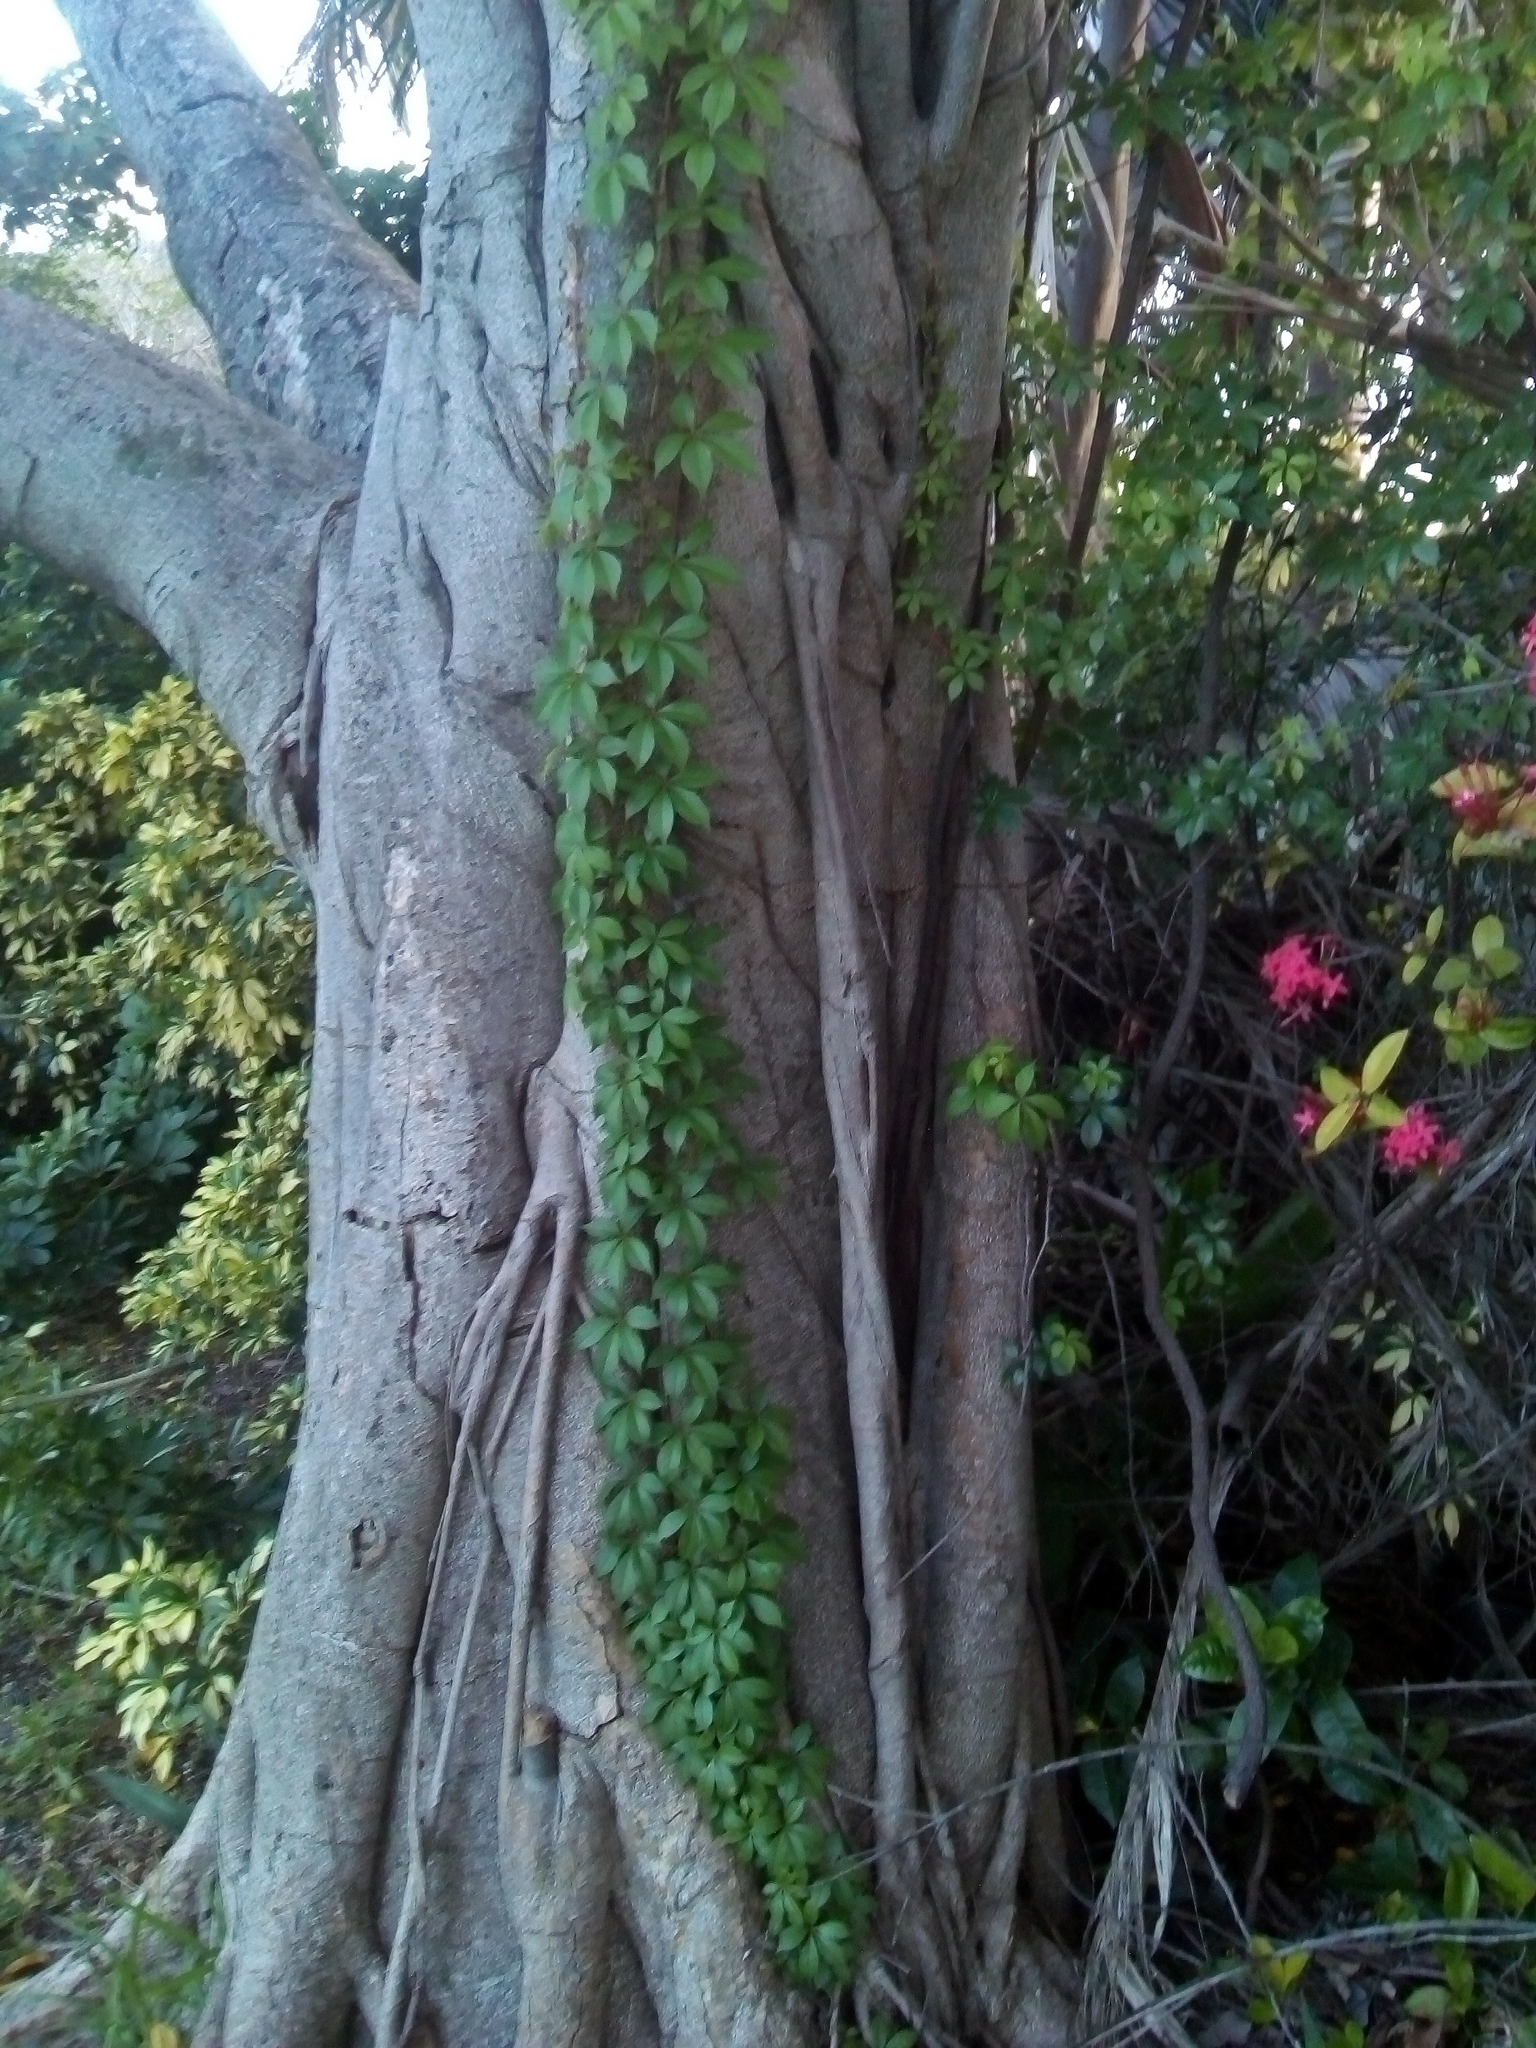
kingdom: Plantae
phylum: Tracheophyta
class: Magnoliopsida
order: Vitales
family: Vitaceae
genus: Parthenocissus
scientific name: Parthenocissus quinquefolia
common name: Virginia-creeper
